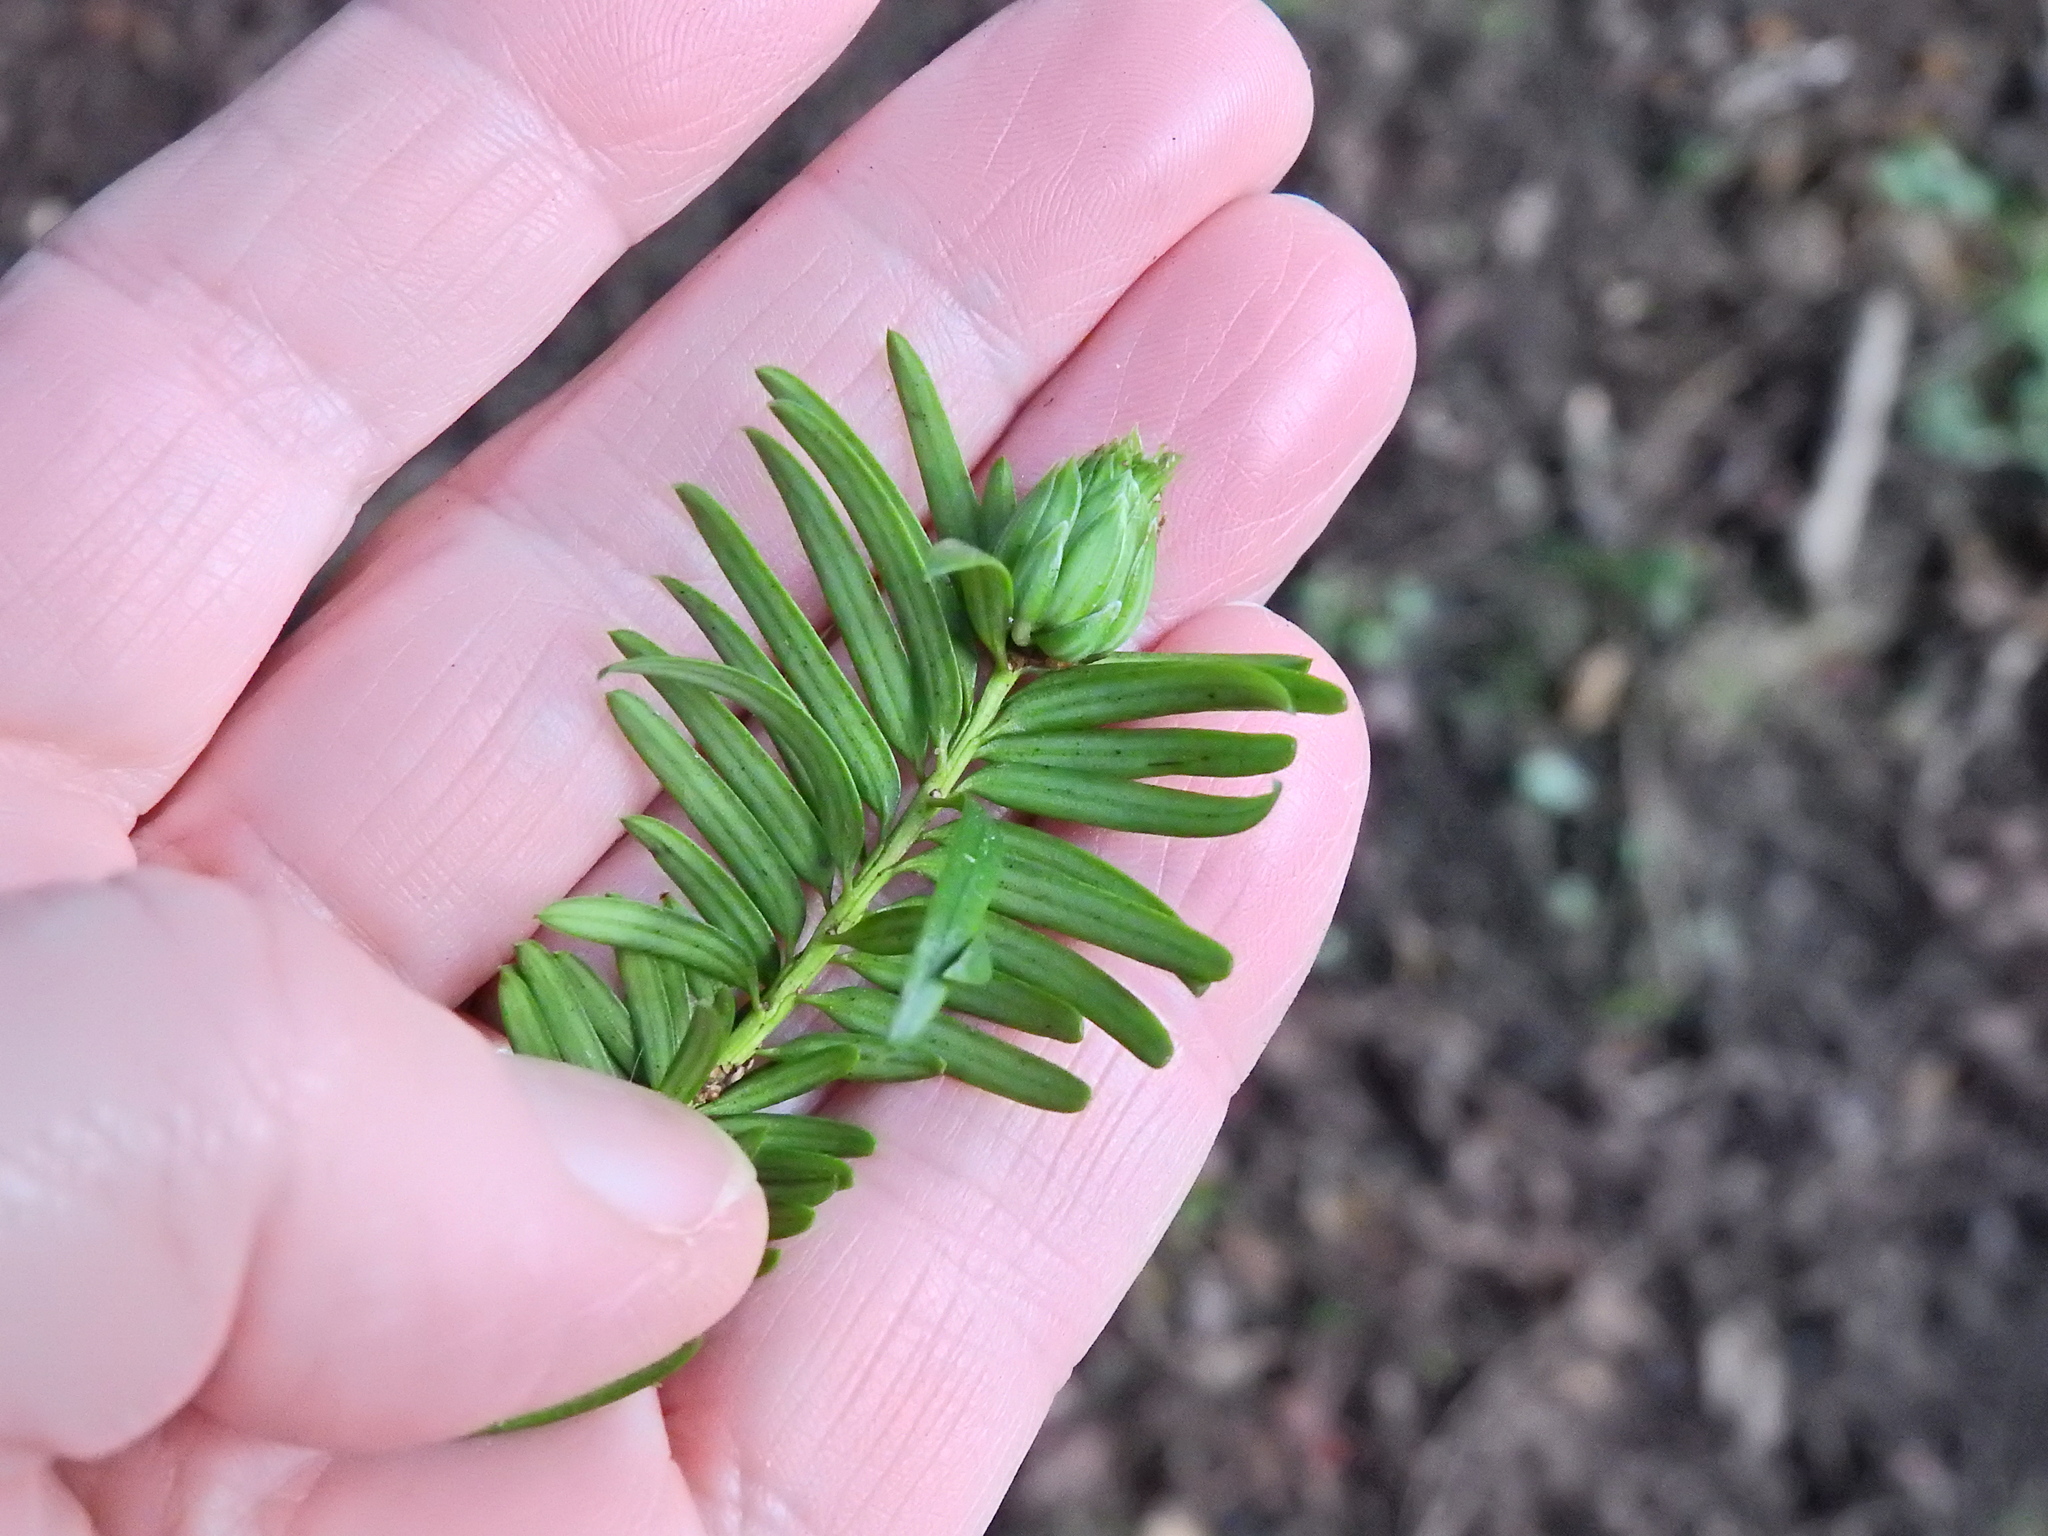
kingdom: Animalia
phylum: Arthropoda
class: Insecta
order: Diptera
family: Cecidomyiidae
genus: Taxomyia
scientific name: Taxomyia taxi
